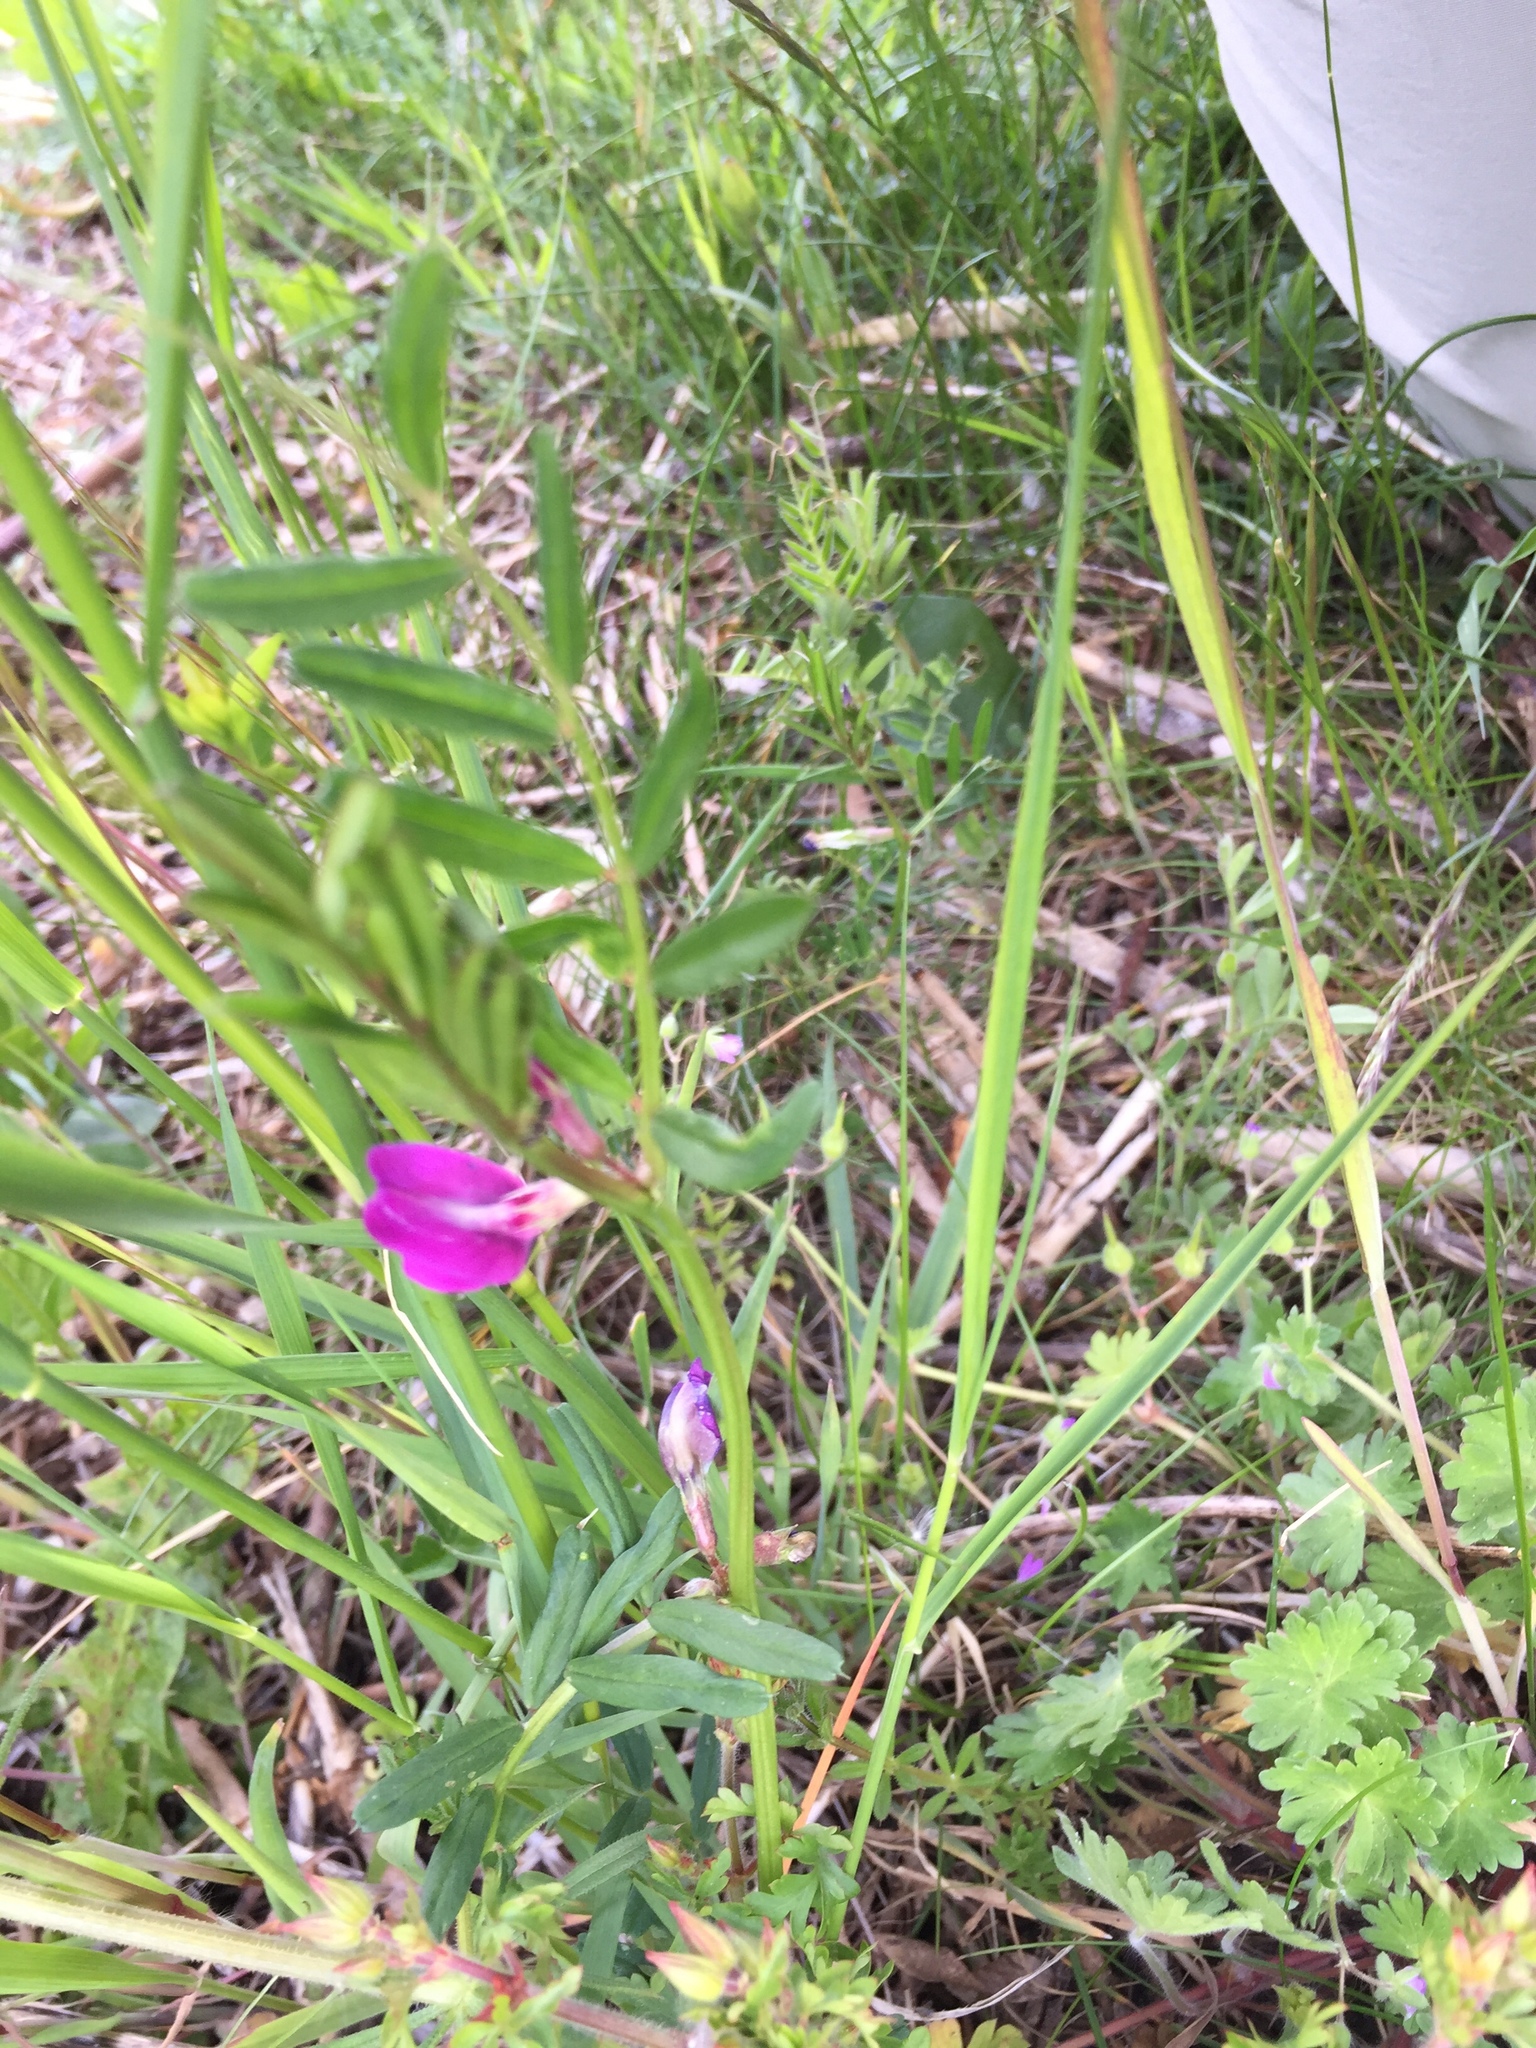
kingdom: Plantae
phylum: Tracheophyta
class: Magnoliopsida
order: Fabales
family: Fabaceae
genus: Vicia
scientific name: Vicia sativa
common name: Garden vetch
